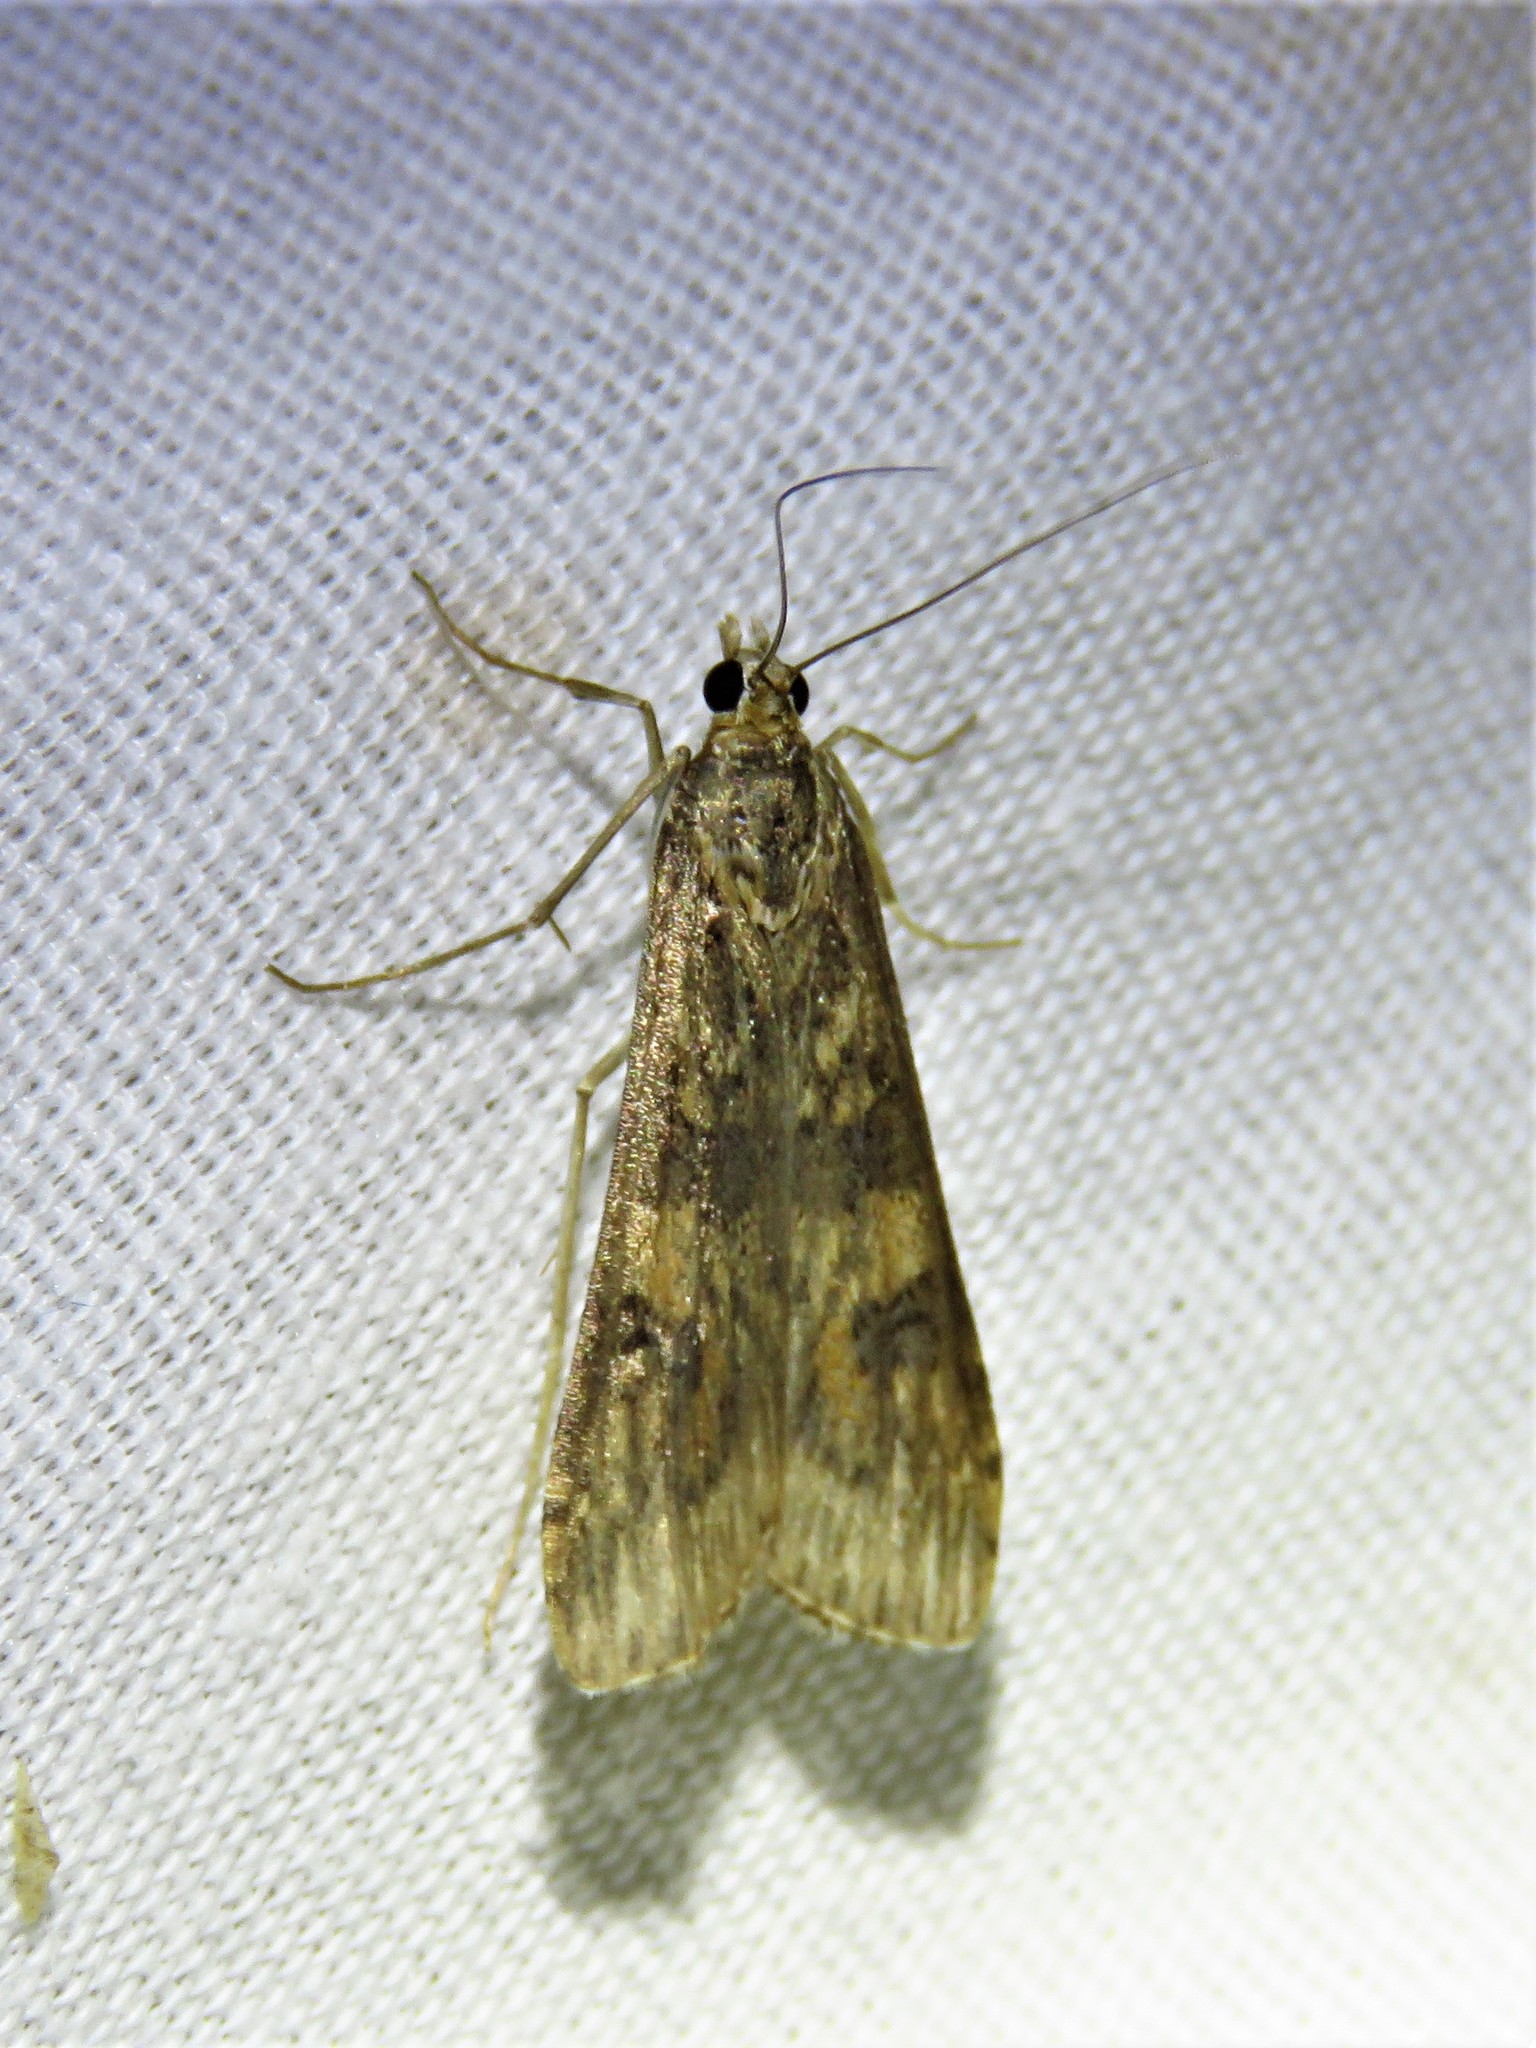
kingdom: Animalia
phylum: Arthropoda
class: Insecta
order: Lepidoptera
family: Crambidae
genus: Nomophila
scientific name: Nomophila nearctica
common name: American rush veneer
